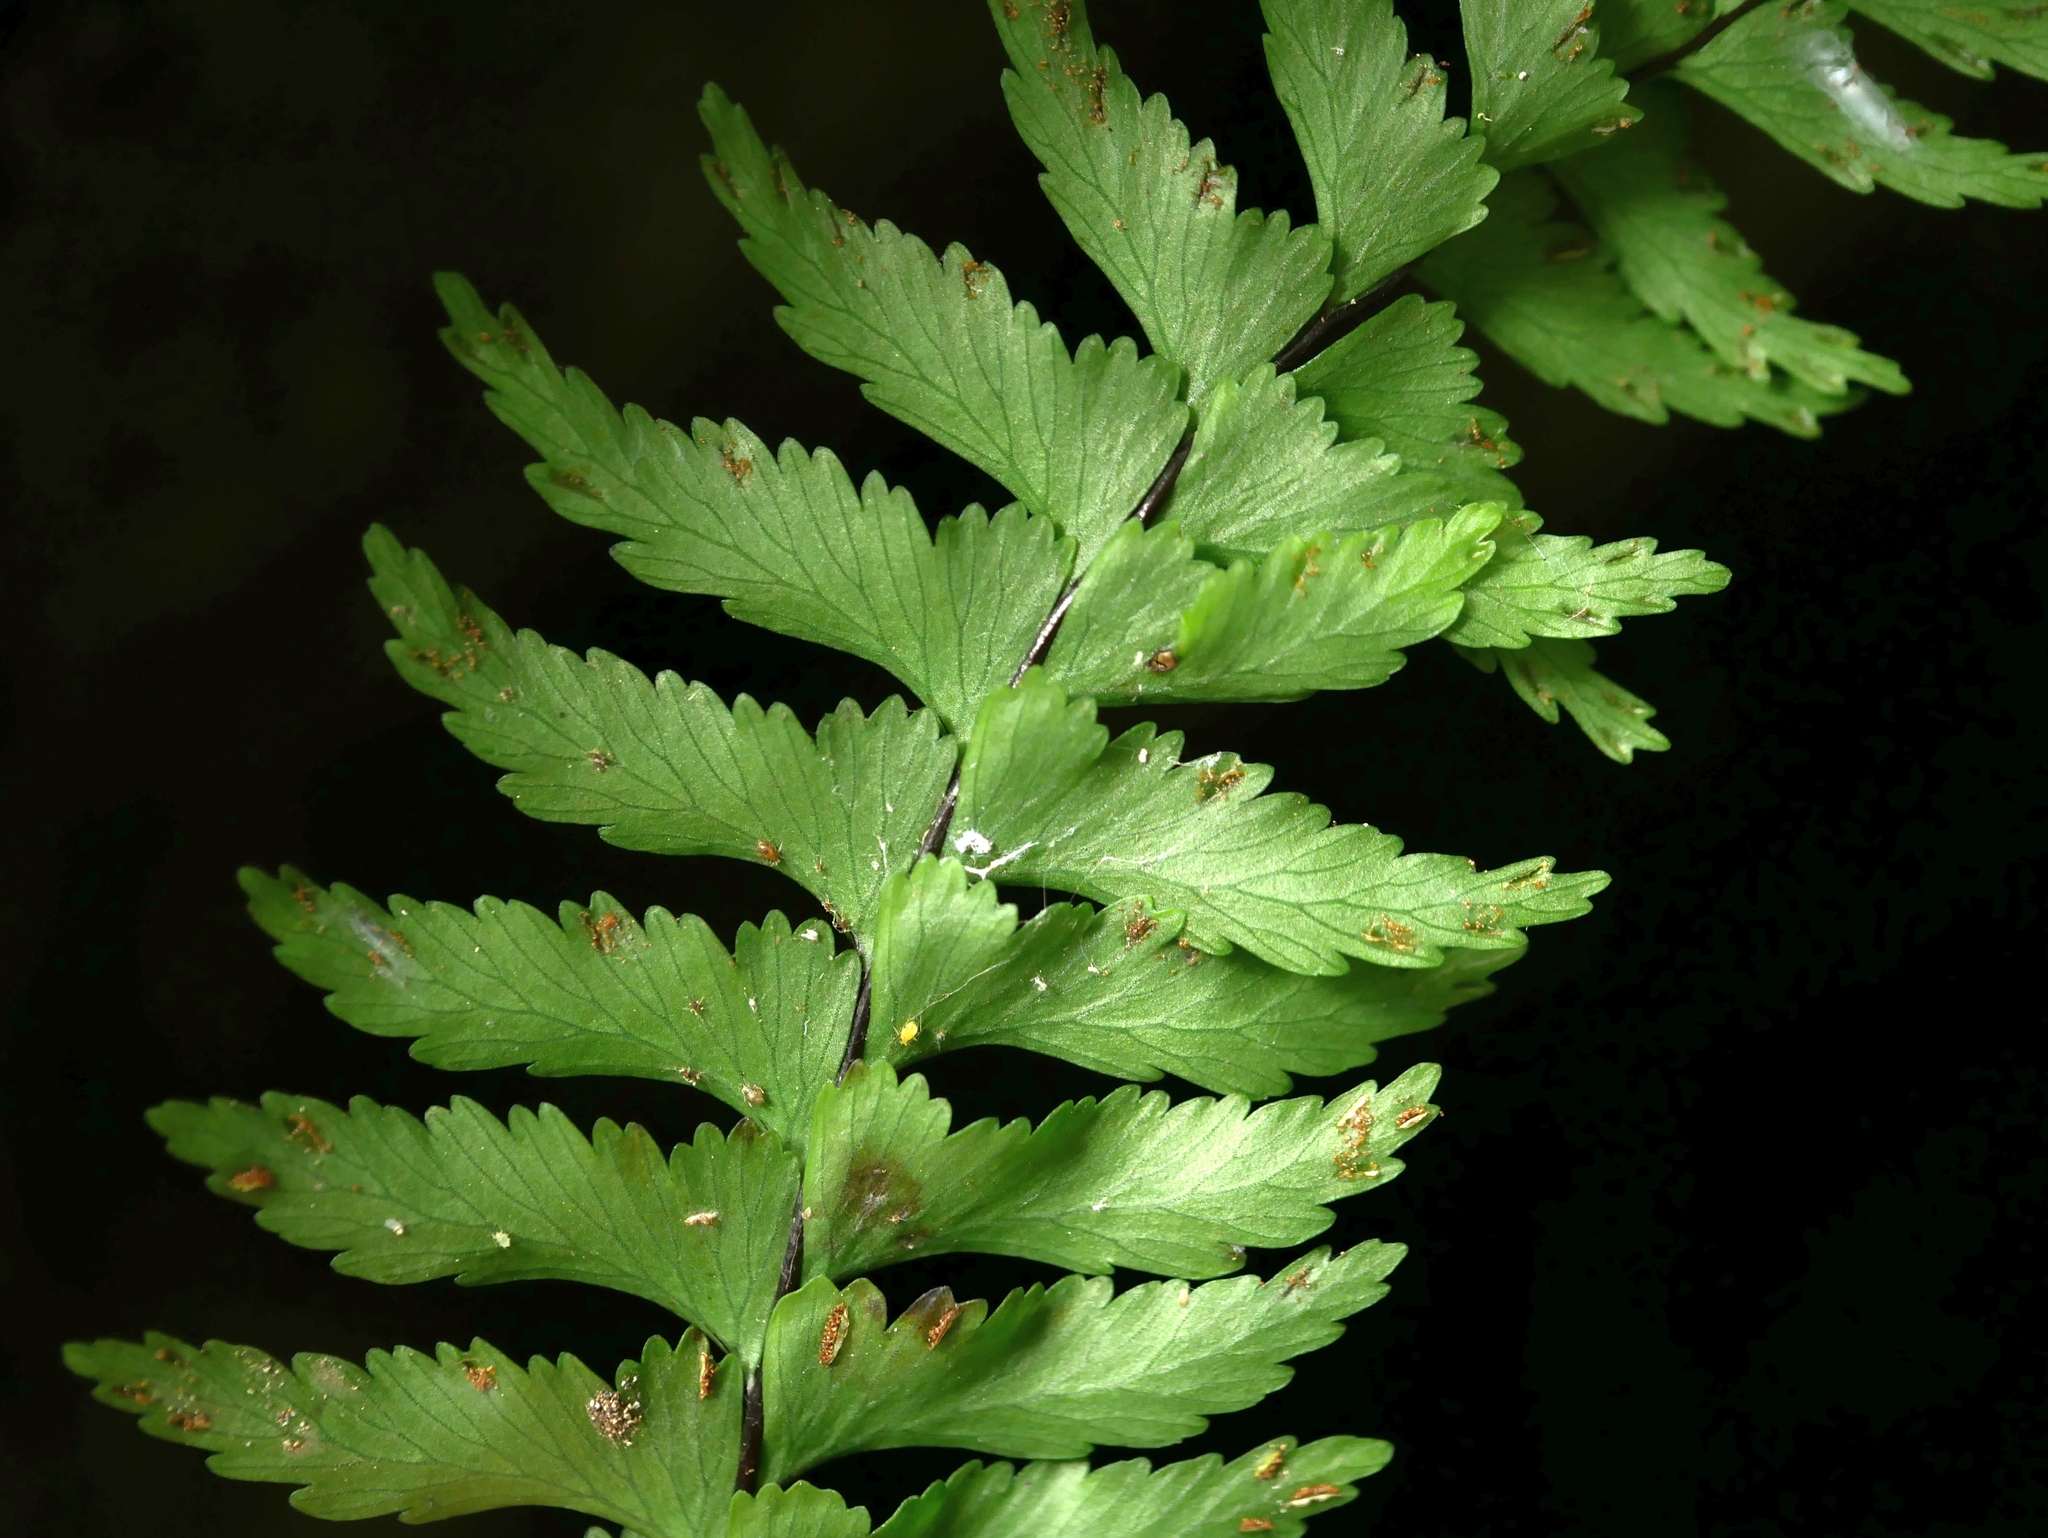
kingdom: Plantae
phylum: Tracheophyta
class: Polypodiopsida
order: Polypodiales
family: Aspleniaceae
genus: Hymenasplenium
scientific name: Hymenasplenium unilaterale
